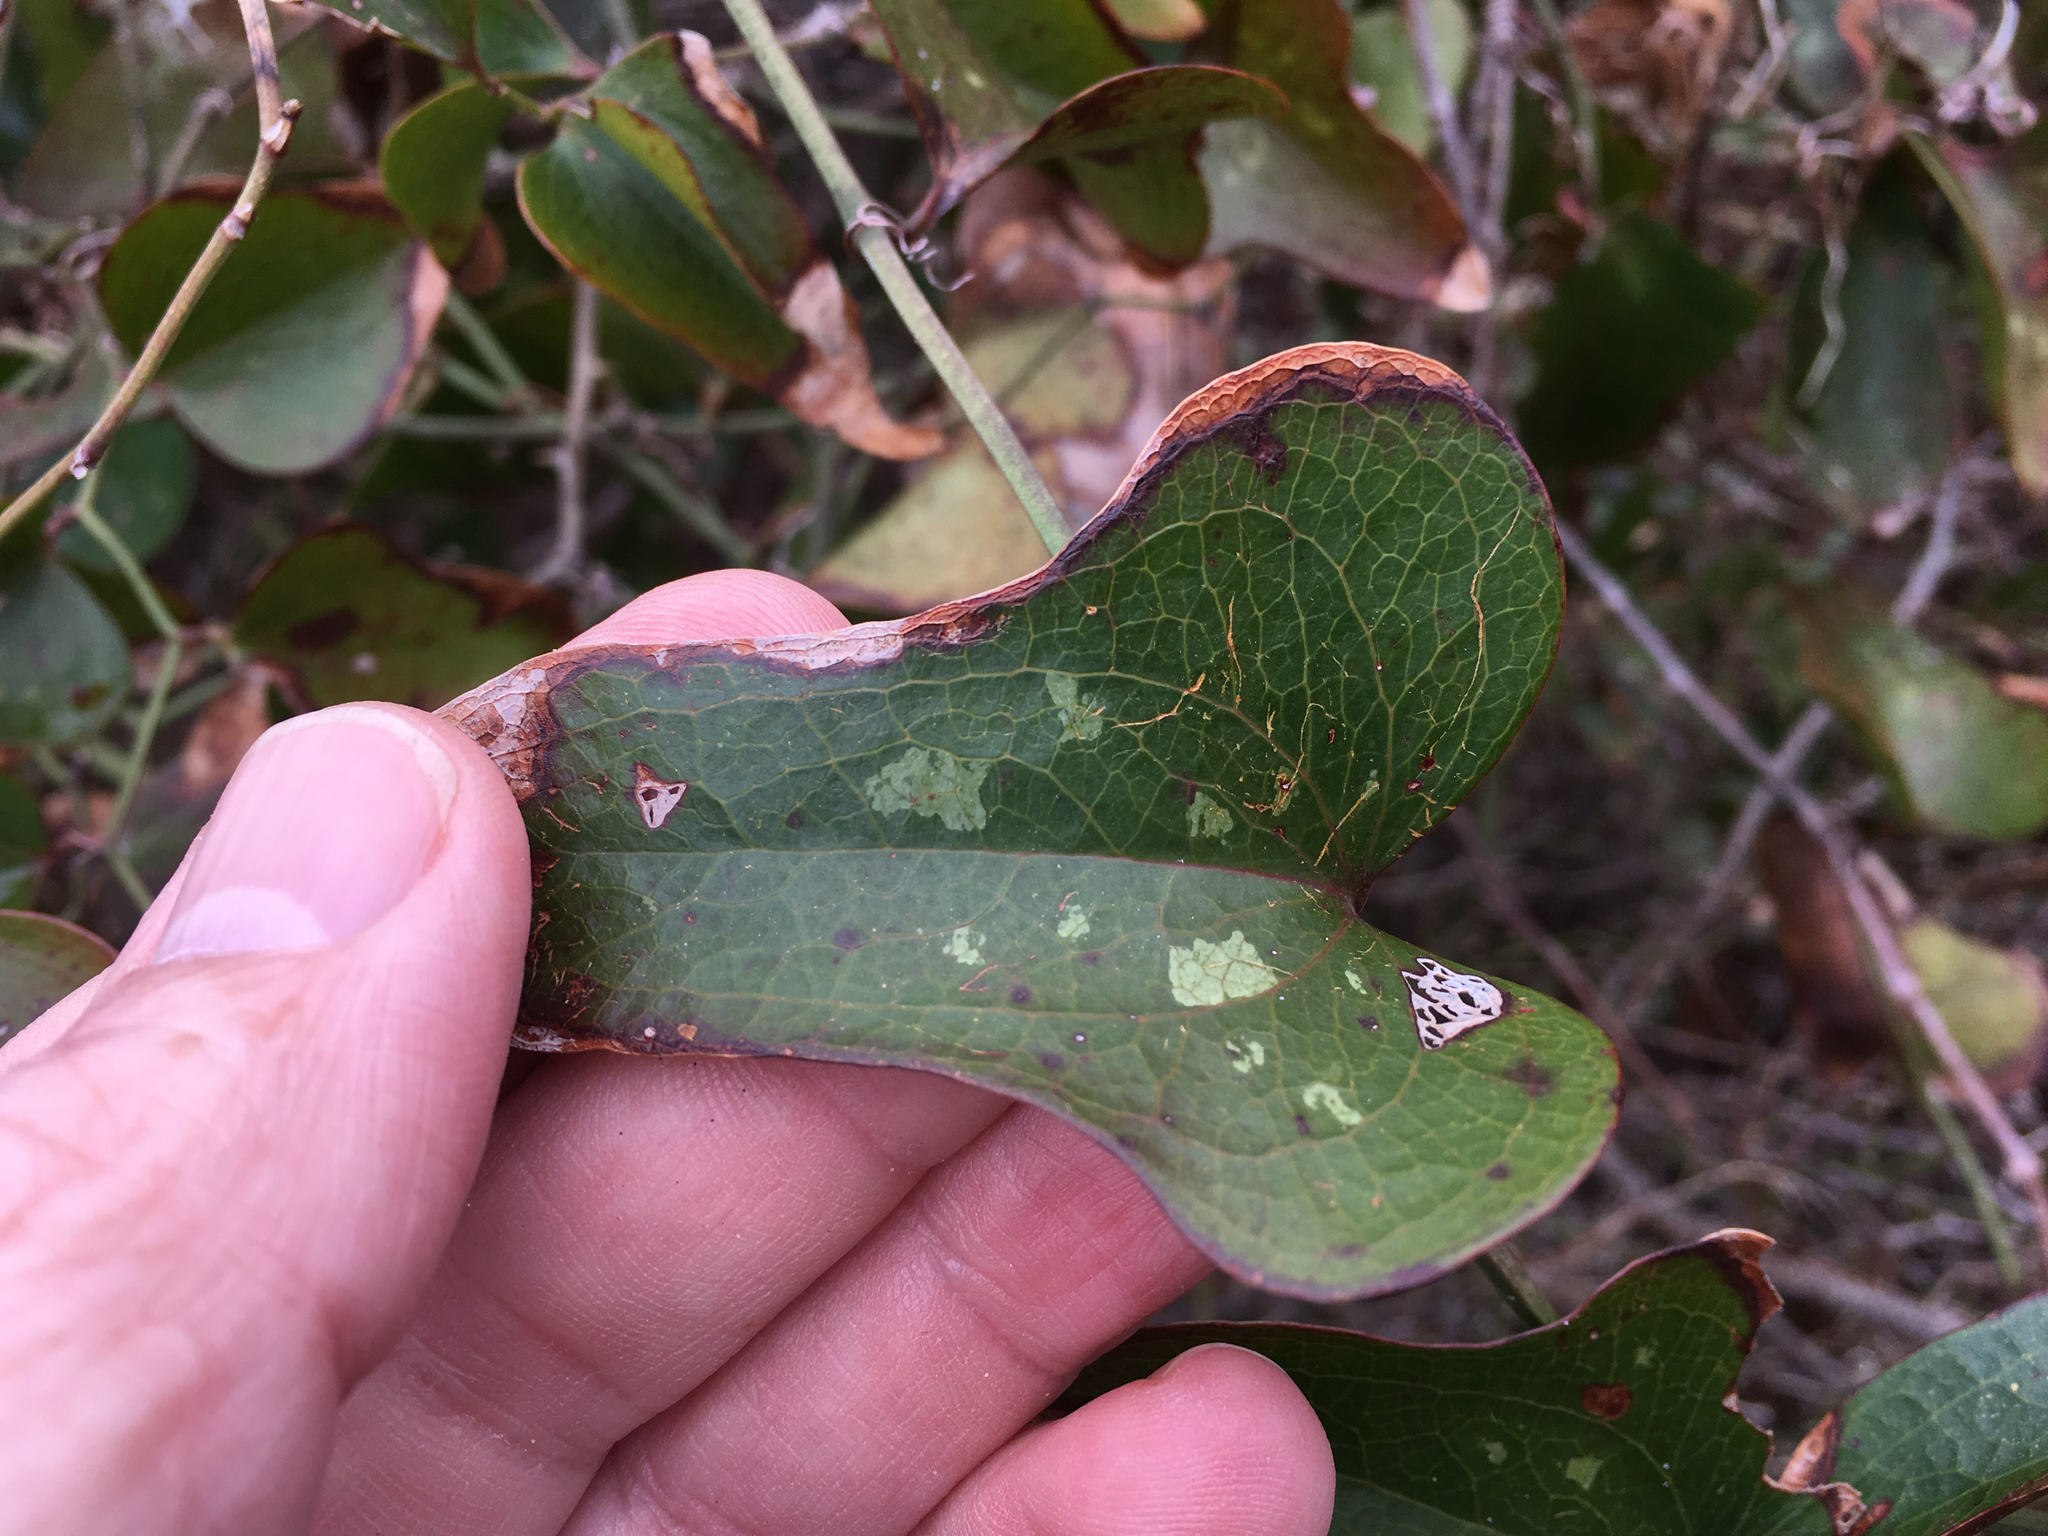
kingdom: Plantae
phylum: Tracheophyta
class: Liliopsida
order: Liliales
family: Smilacaceae
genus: Smilax
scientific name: Smilax bona-nox
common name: Catbrier
